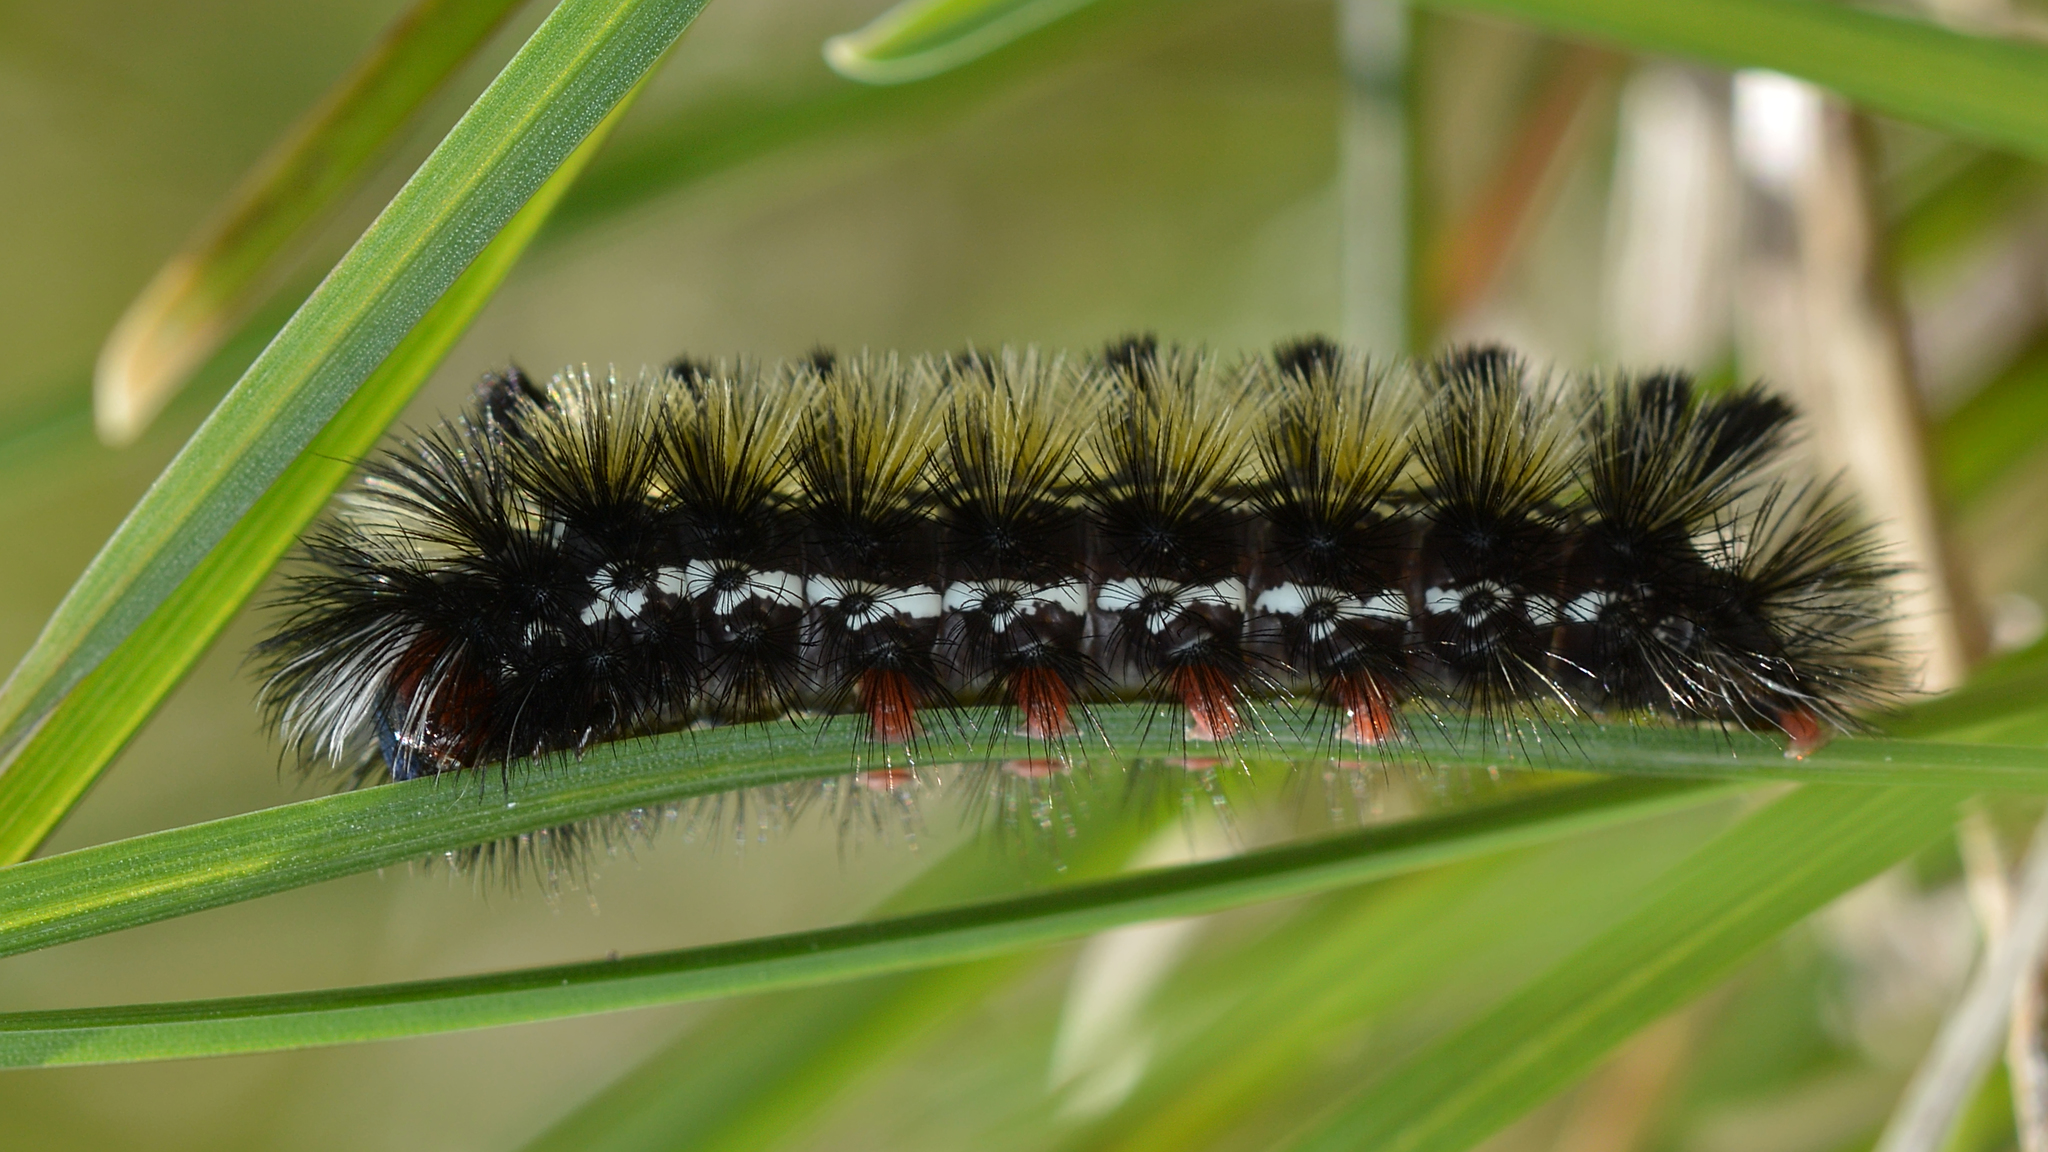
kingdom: Animalia
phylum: Arthropoda
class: Insecta
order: Lepidoptera
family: Erebidae
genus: Ctenucha
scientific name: Ctenucha virginica
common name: Virginia ctenucha moth
